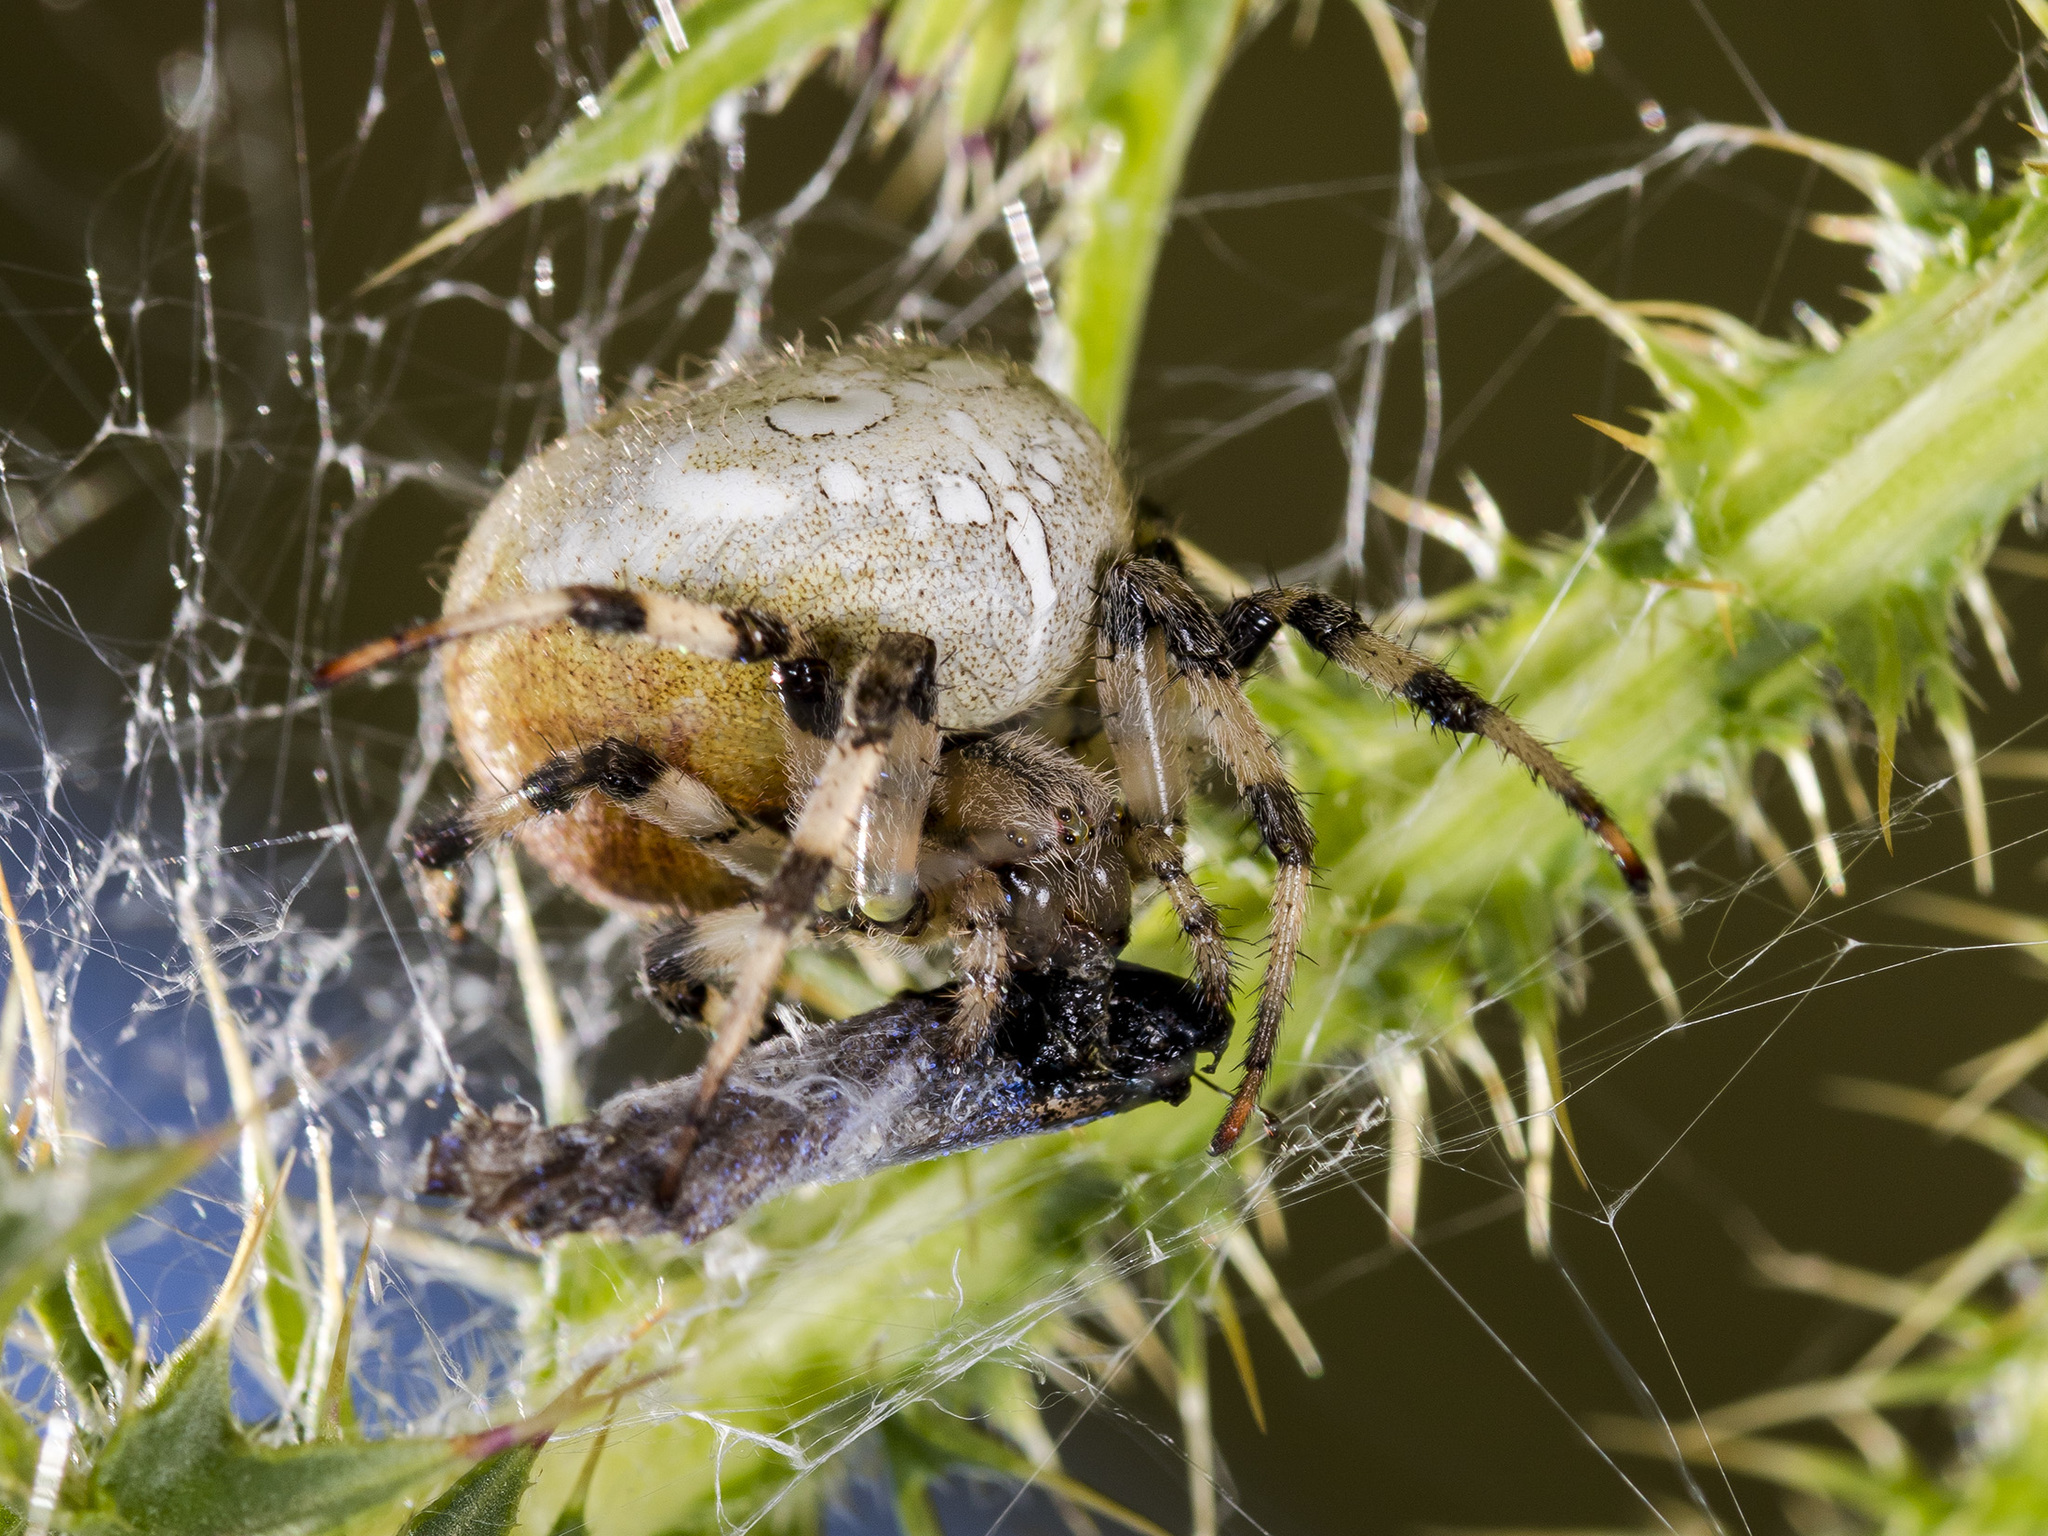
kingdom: Animalia
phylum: Arthropoda
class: Arachnida
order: Araneae
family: Araneidae
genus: Araneus
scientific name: Araneus quadratus
